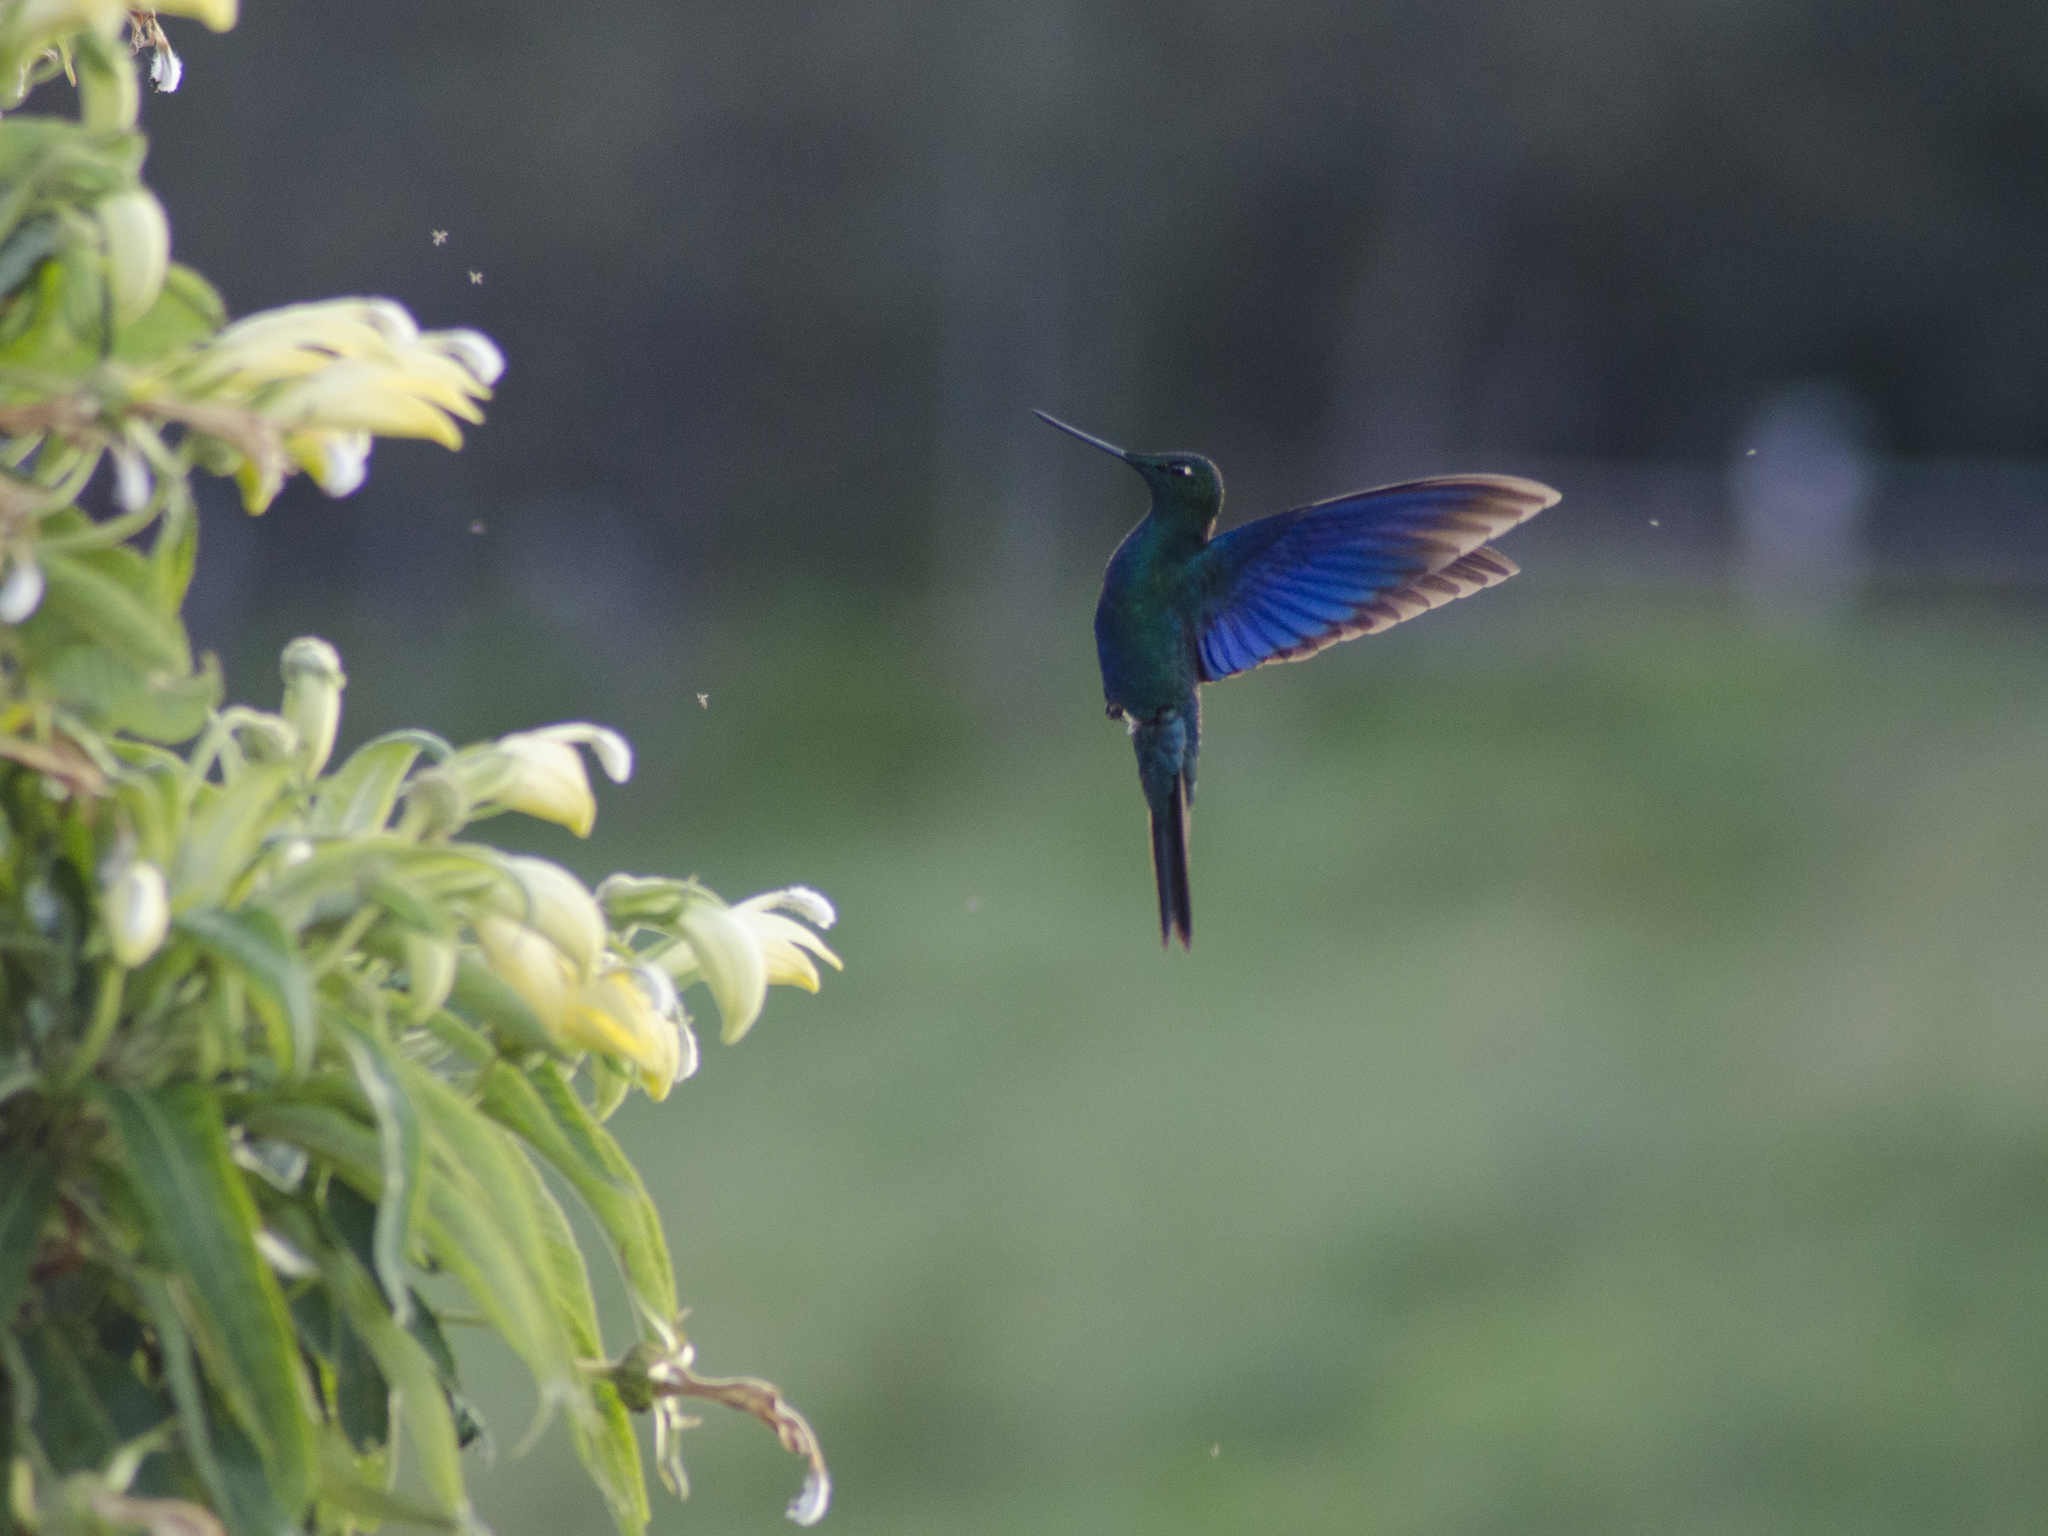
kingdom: Animalia
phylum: Chordata
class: Aves
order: Apodiformes
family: Trochilidae
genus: Pterophanes
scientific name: Pterophanes cyanopterus
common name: Great sapphirewing
